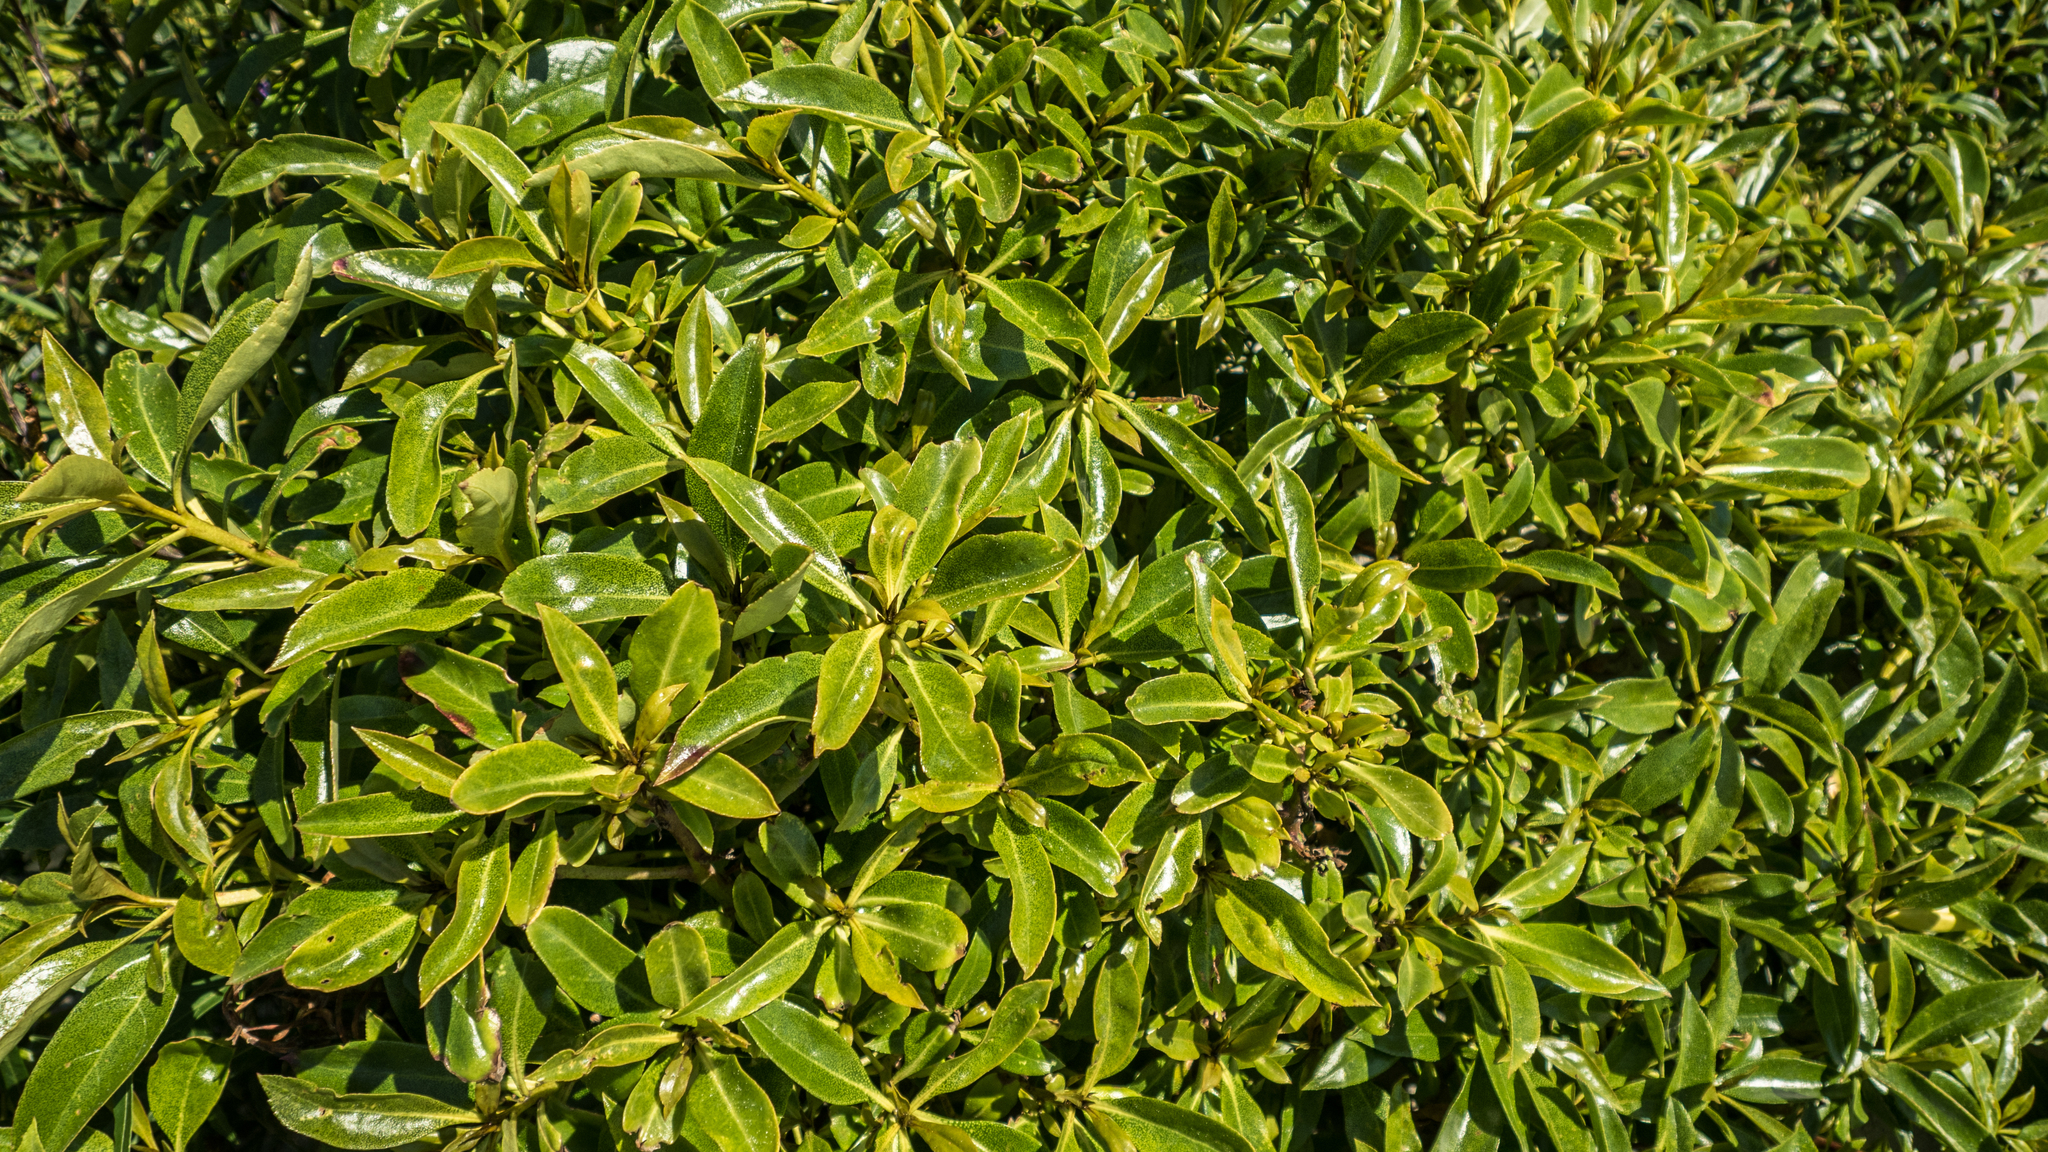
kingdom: Plantae
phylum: Tracheophyta
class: Magnoliopsida
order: Lamiales
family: Scrophulariaceae
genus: Myoporum
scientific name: Myoporum laetum
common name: Ngaio tree
